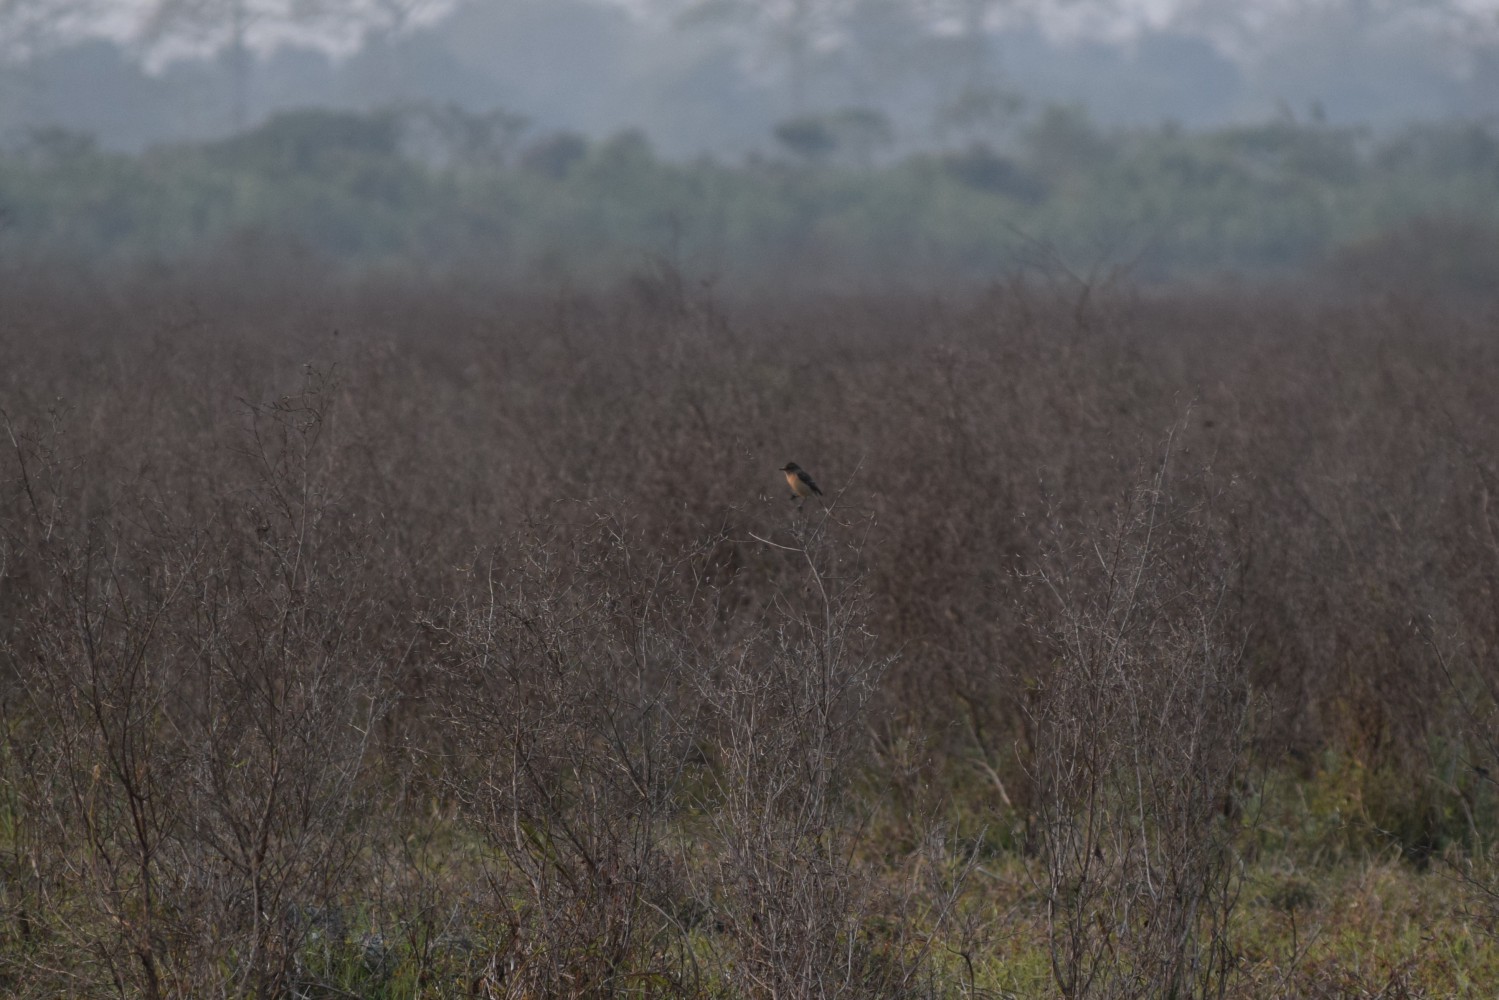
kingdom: Animalia
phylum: Chordata
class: Aves
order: Passeriformes
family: Muscicapidae
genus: Saxicola
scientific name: Saxicola caprata
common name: Pied bush chat
